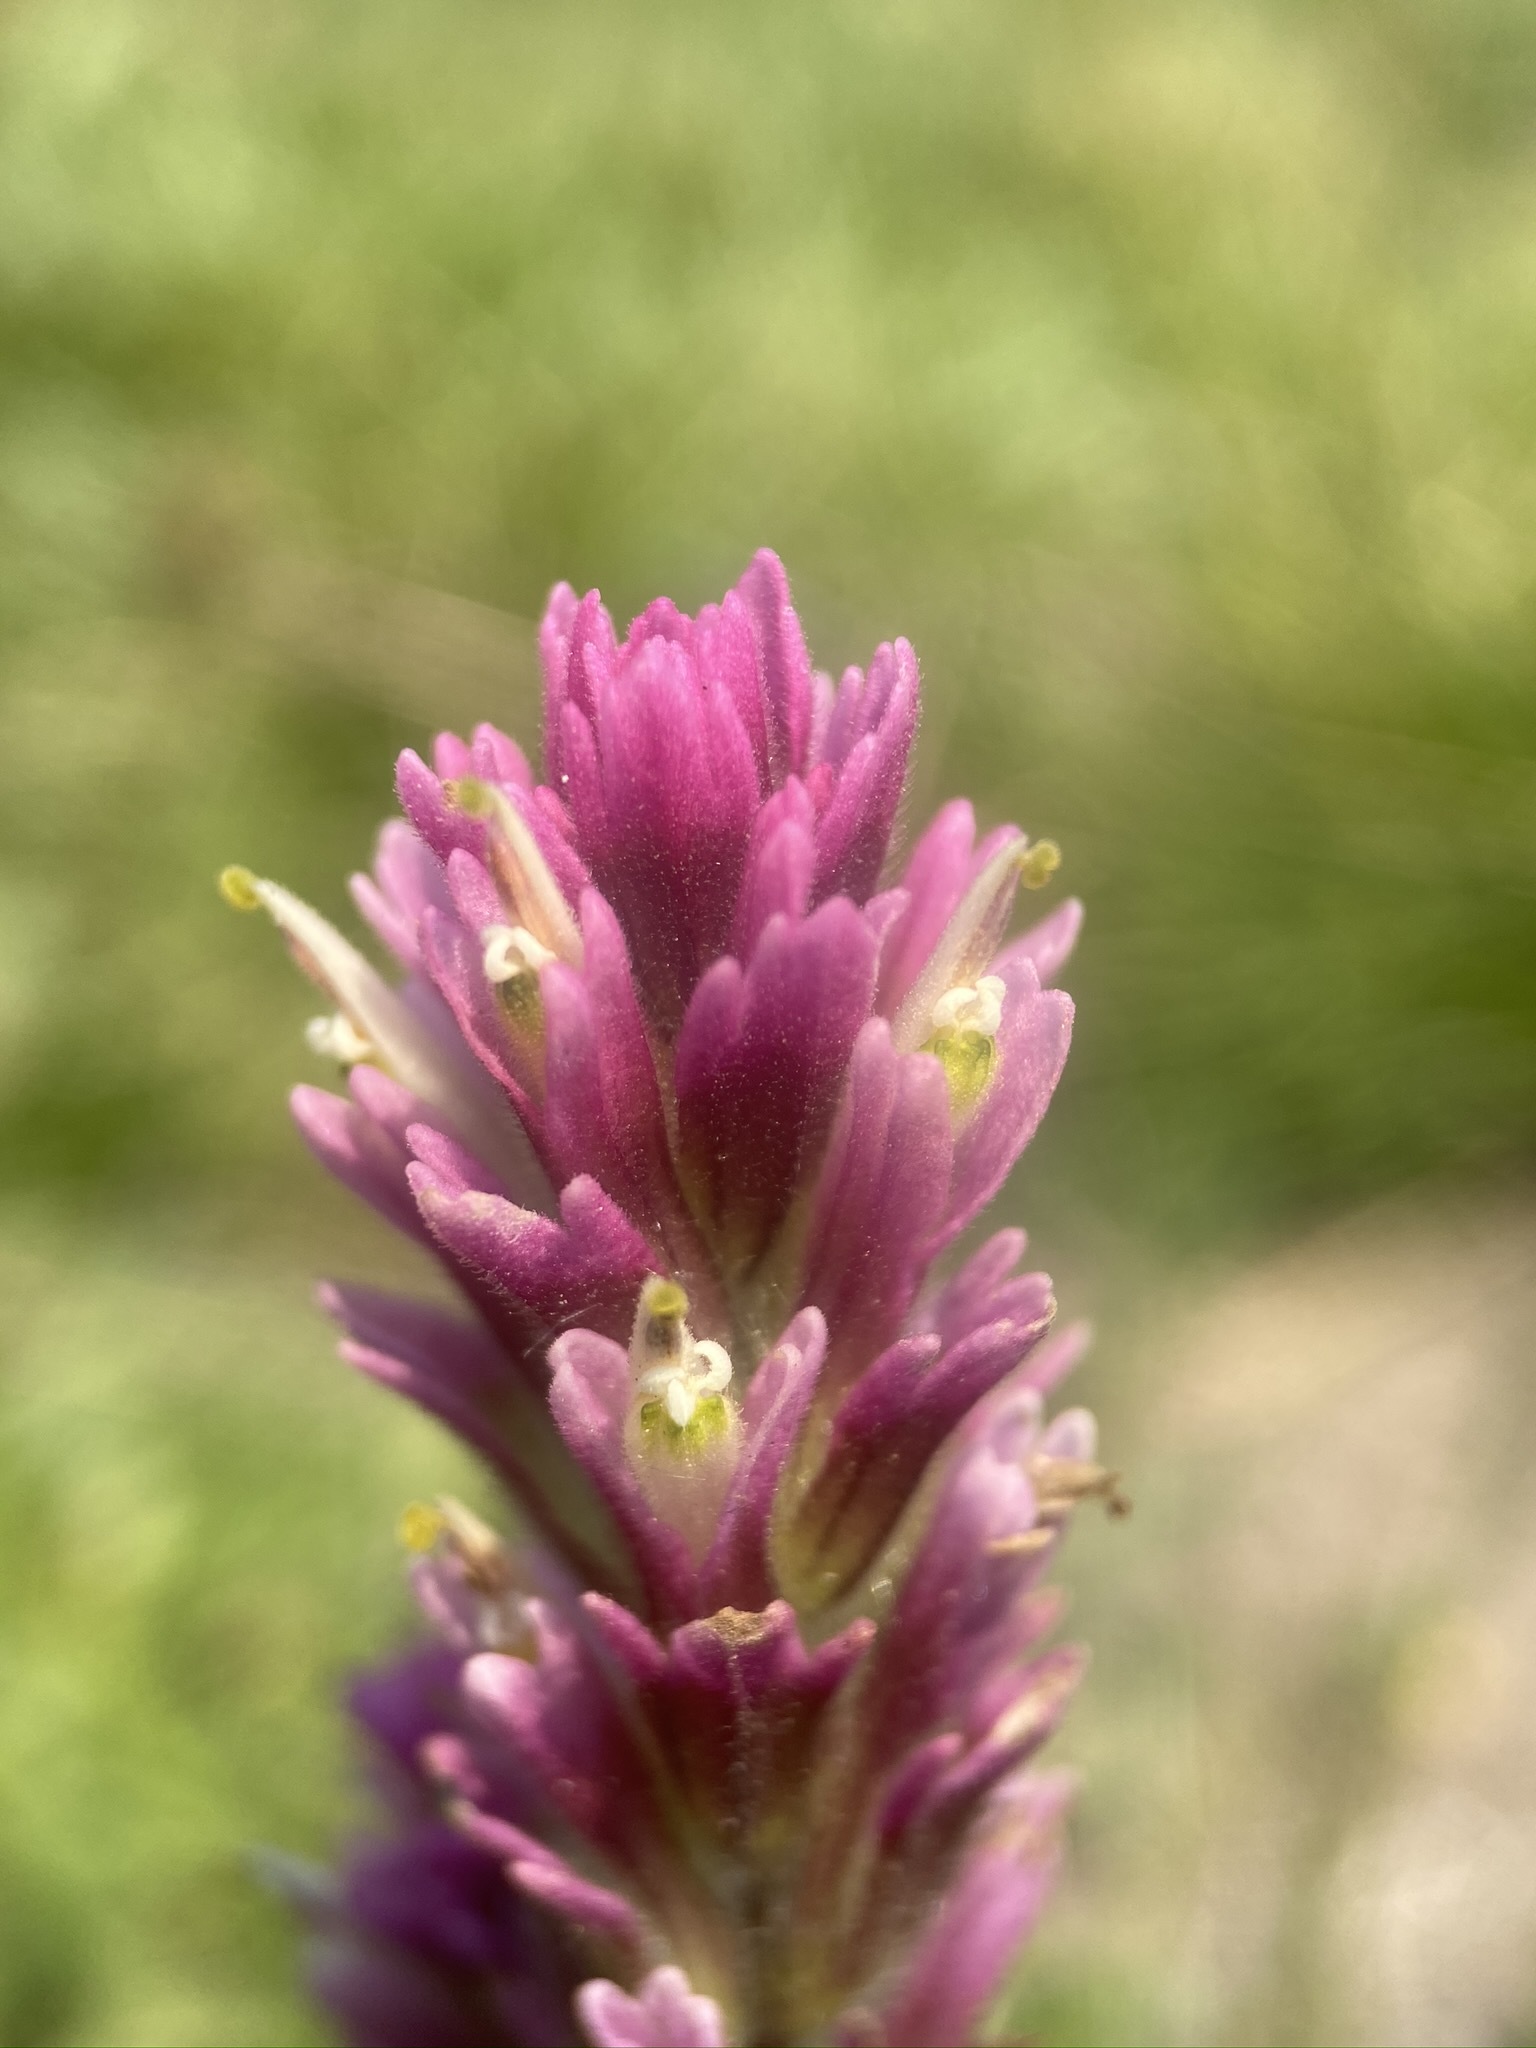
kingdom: Plantae
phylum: Tracheophyta
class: Magnoliopsida
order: Lamiales
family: Orobanchaceae
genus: Castilleja
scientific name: Castilleja lassenensis
